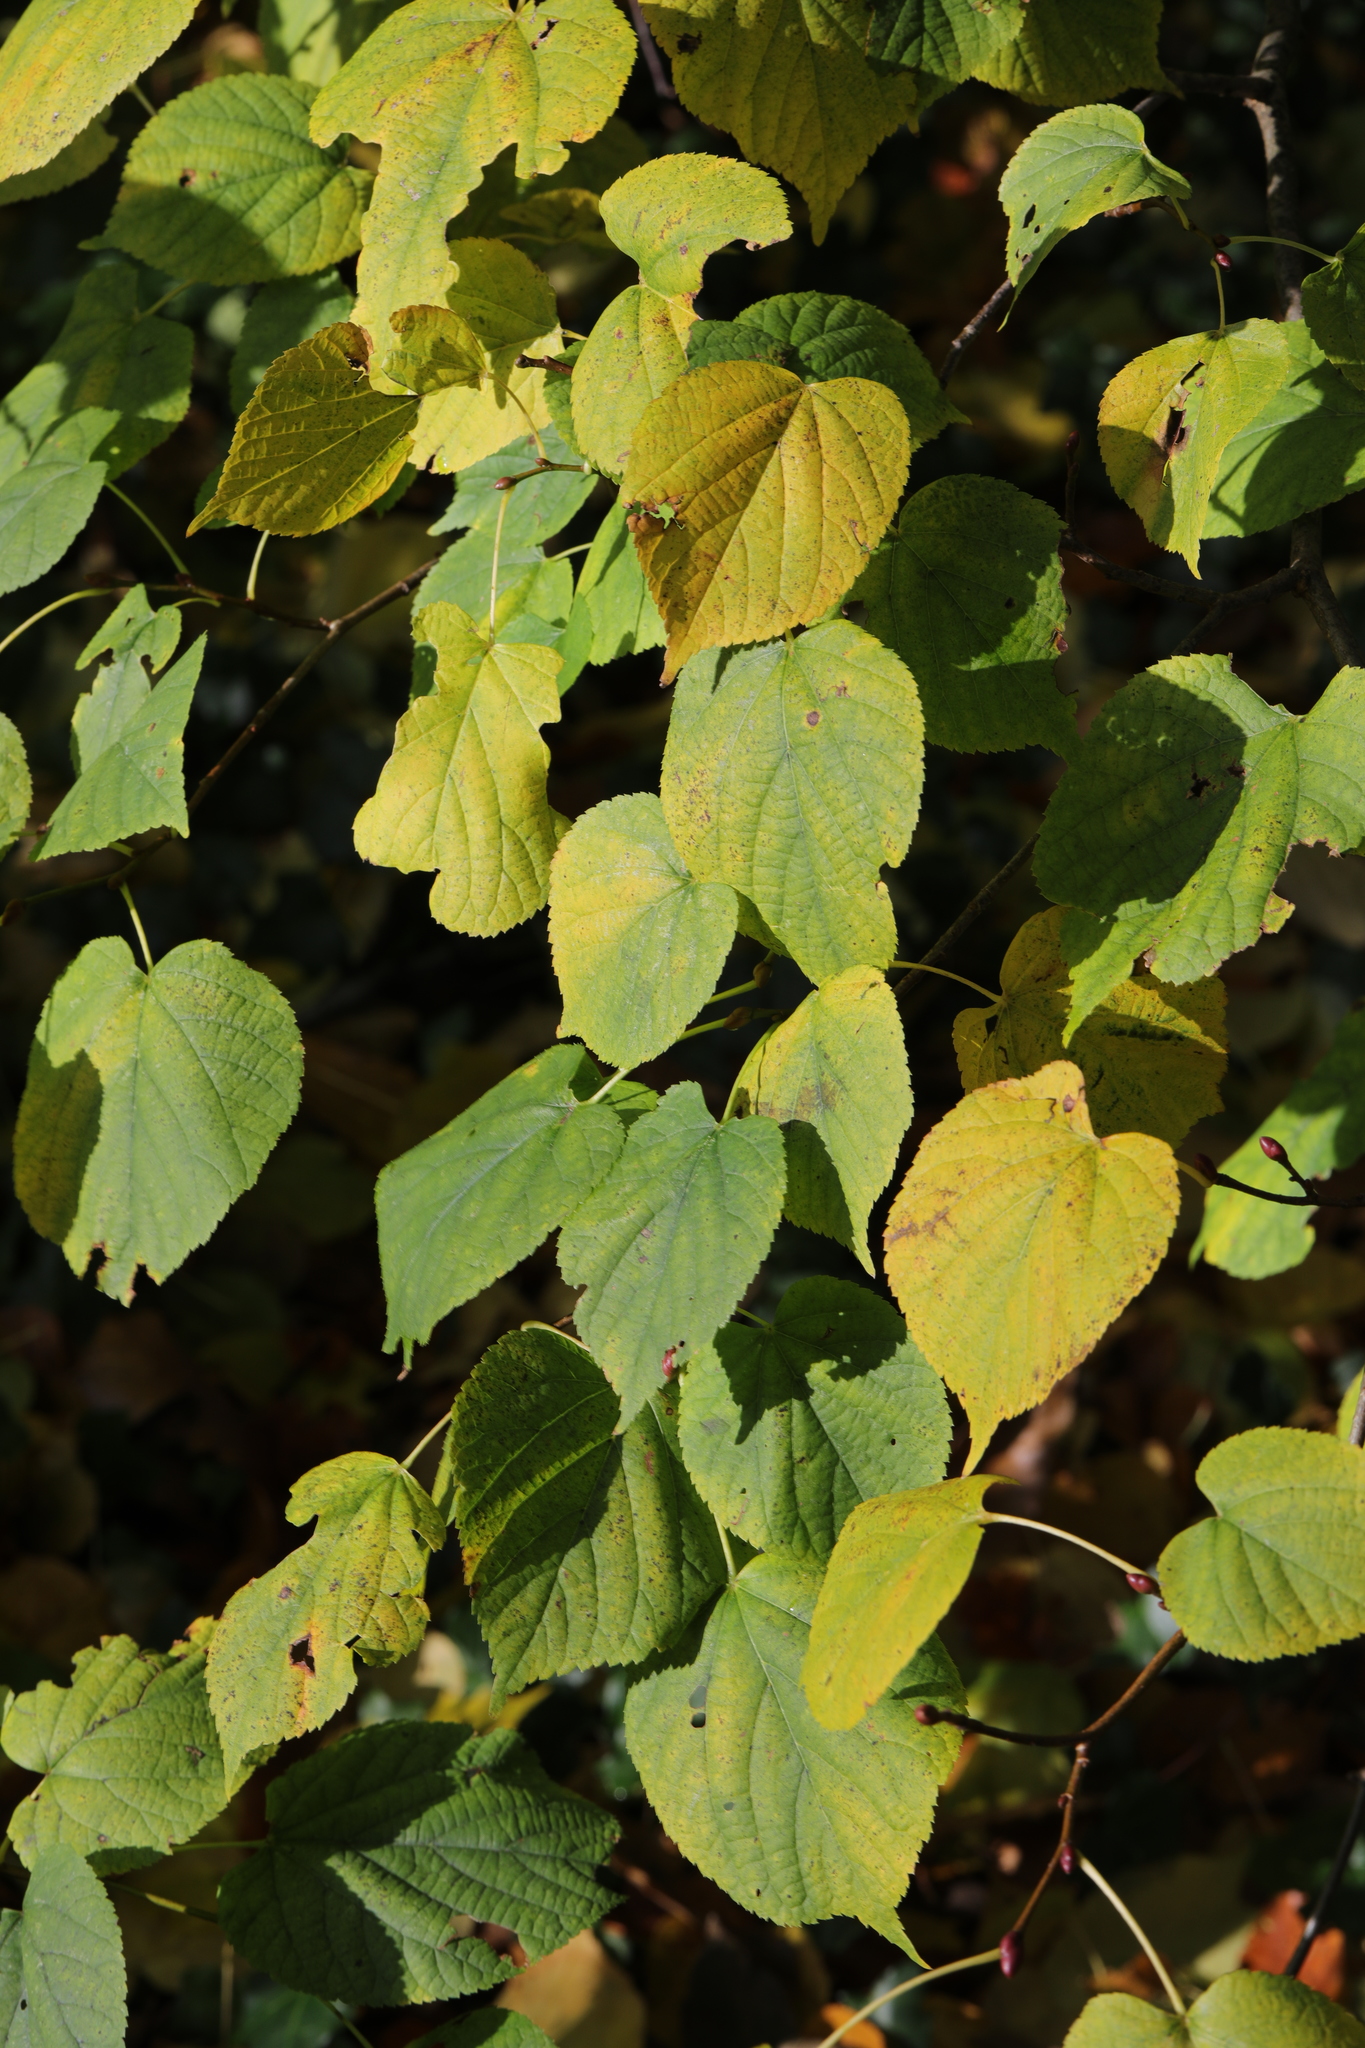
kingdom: Plantae
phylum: Tracheophyta
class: Magnoliopsida
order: Malvales
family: Malvaceae
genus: Tilia
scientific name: Tilia europaea
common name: European linden
